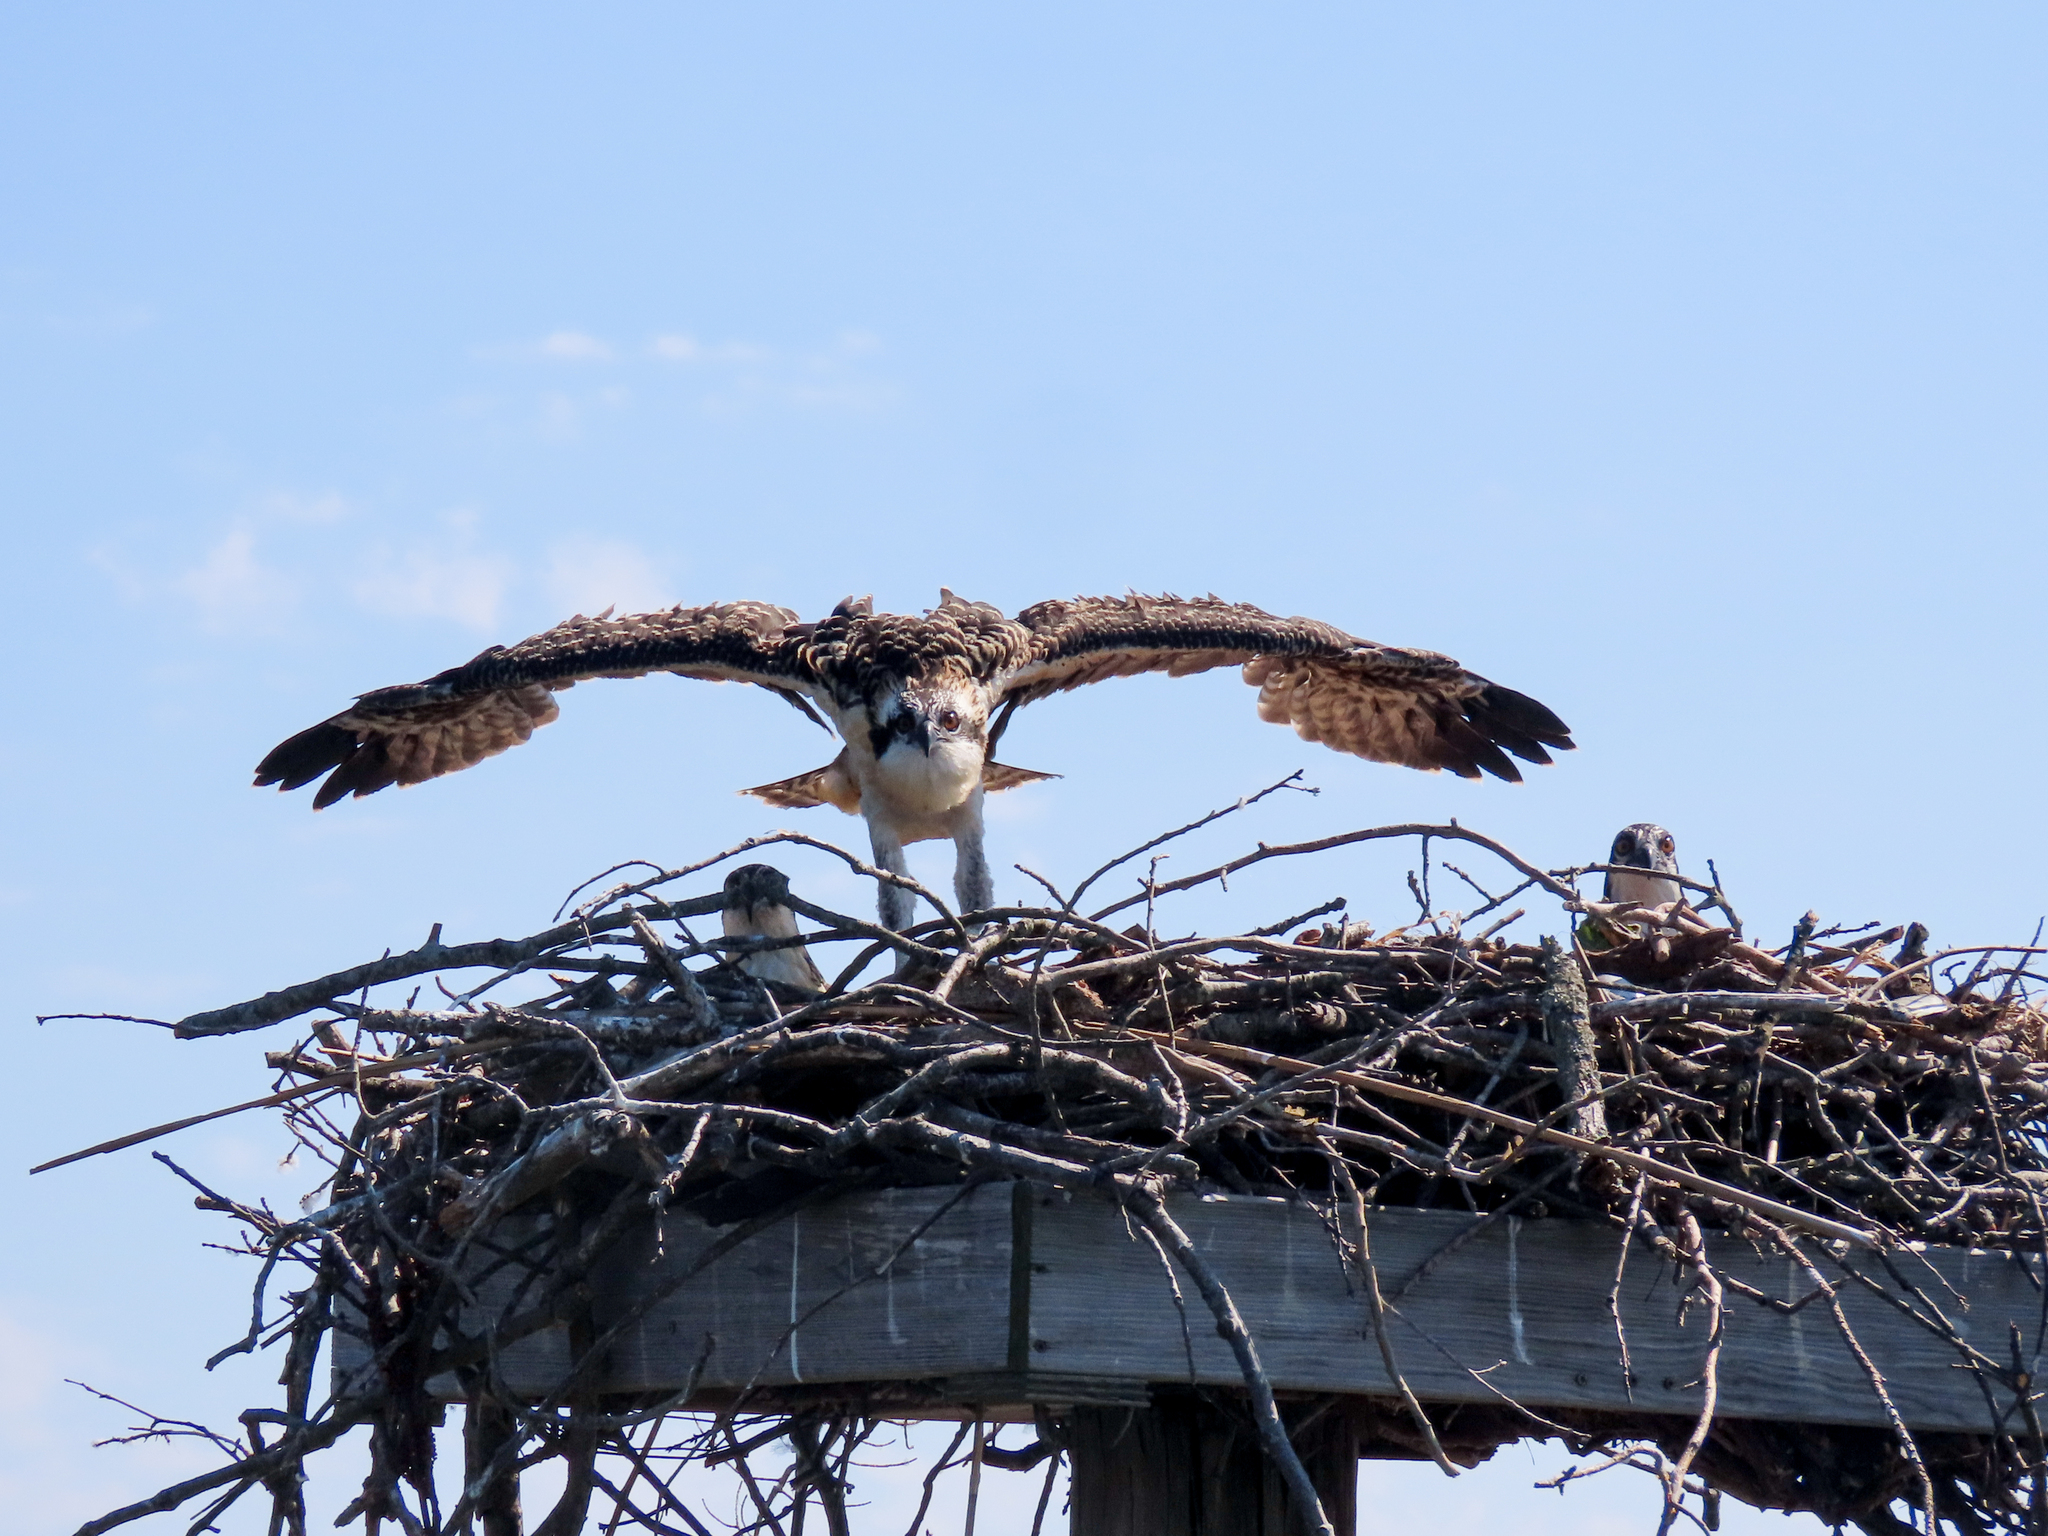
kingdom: Animalia
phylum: Chordata
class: Aves
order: Accipitriformes
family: Pandionidae
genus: Pandion
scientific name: Pandion haliaetus
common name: Osprey
